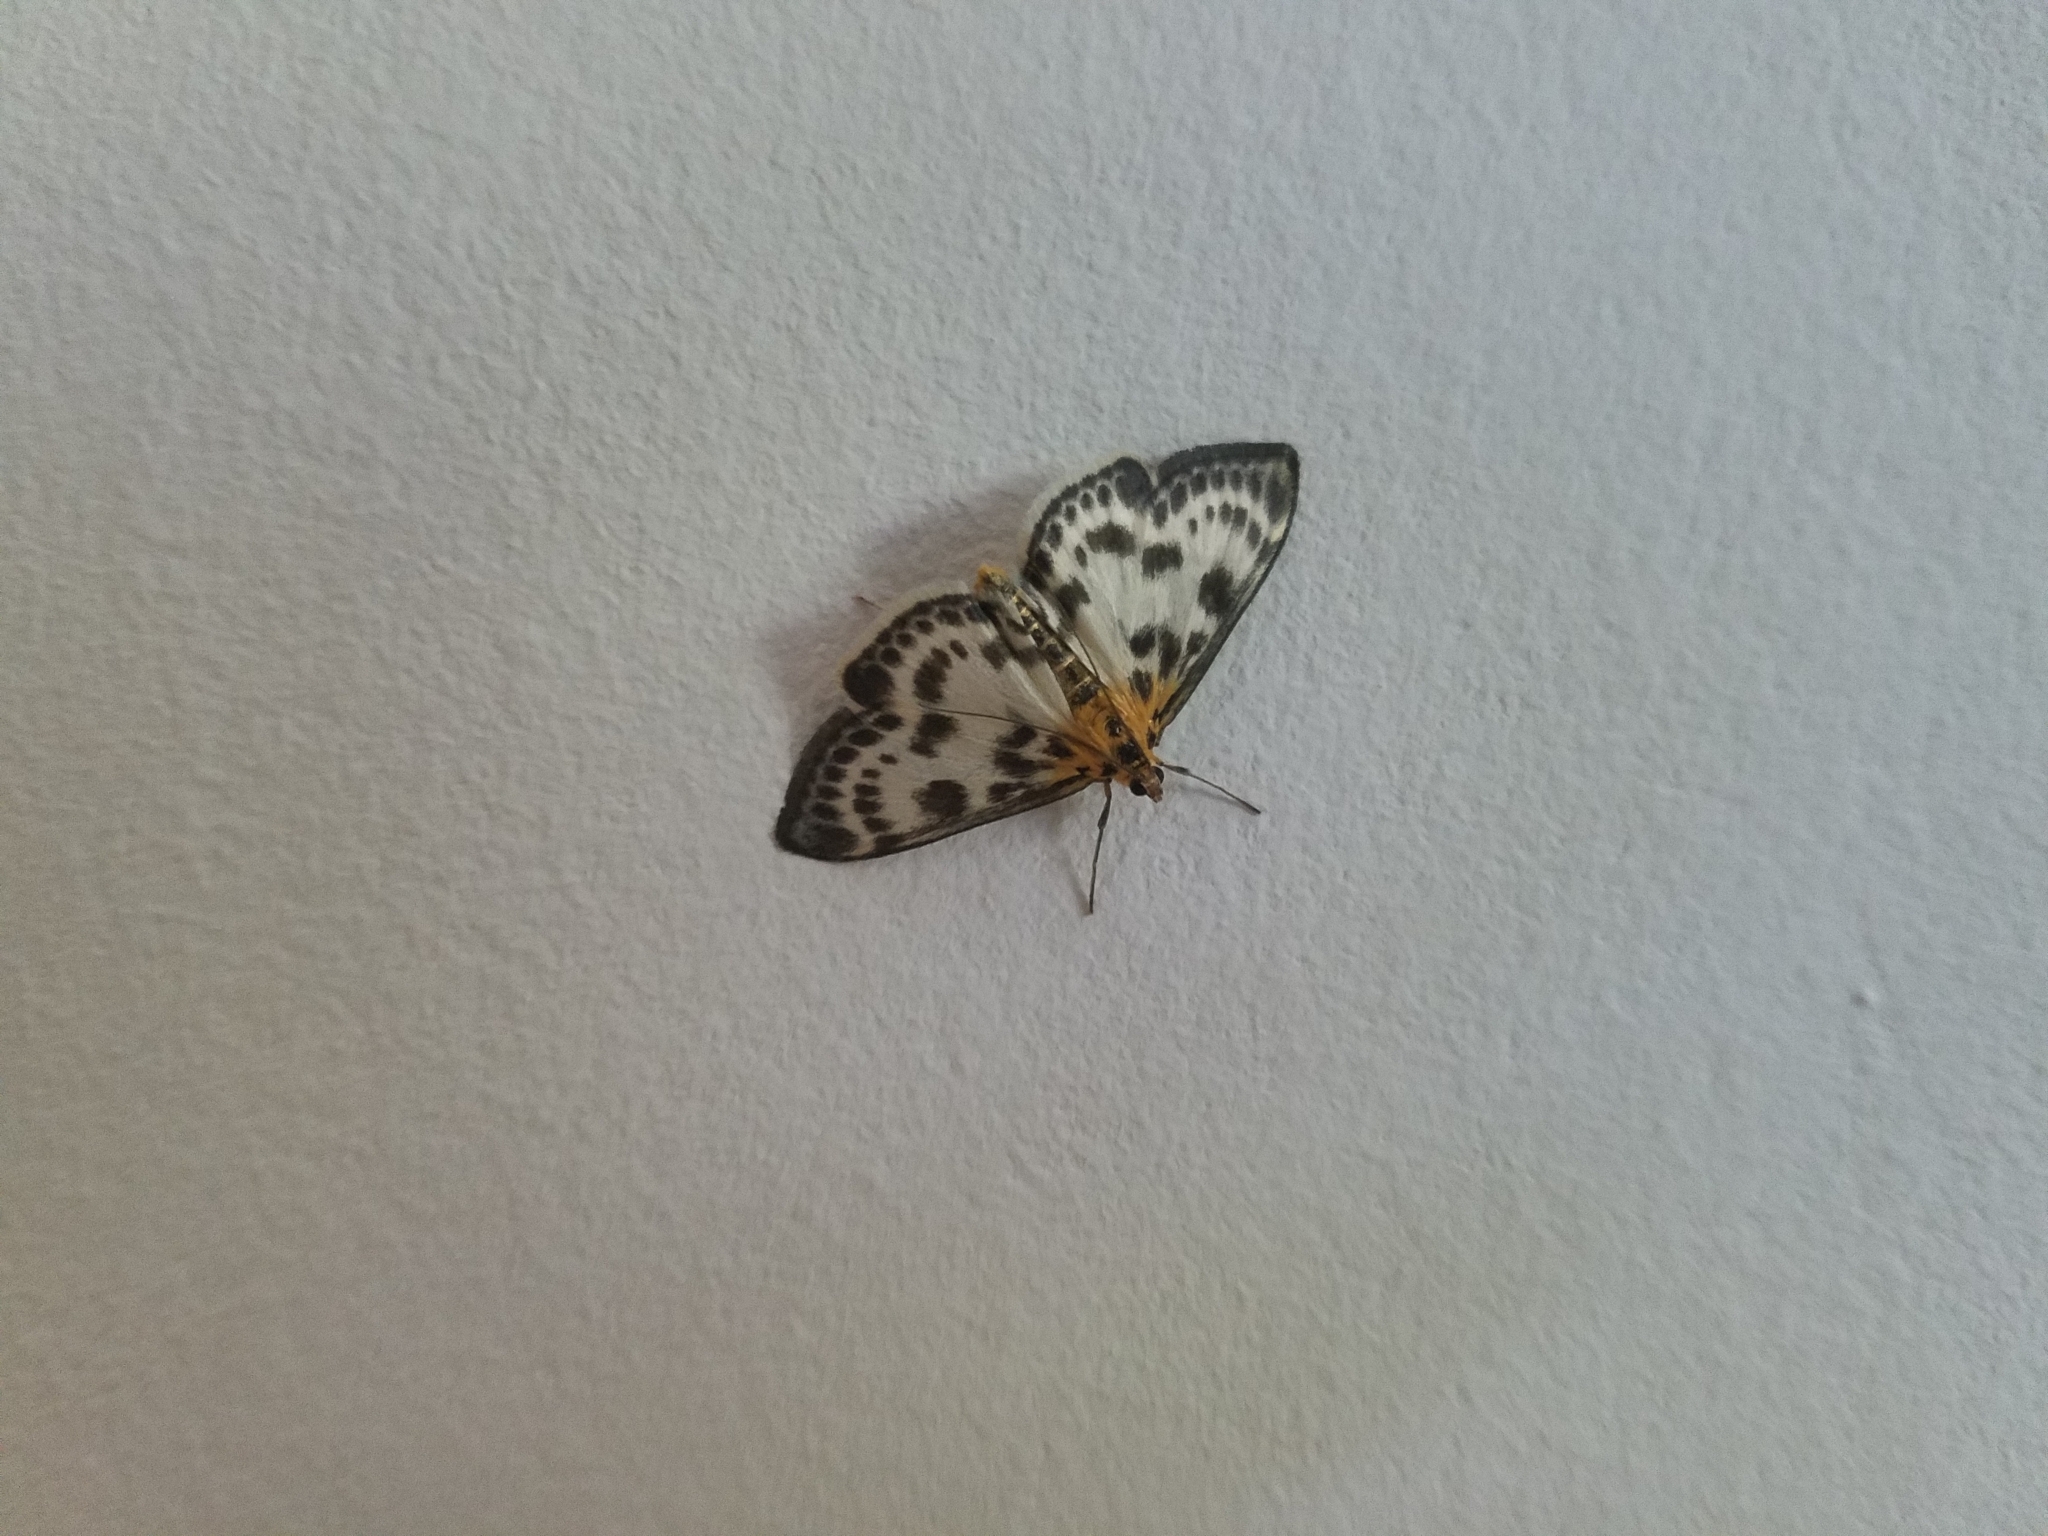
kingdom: Animalia
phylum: Arthropoda
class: Insecta
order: Lepidoptera
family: Crambidae
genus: Anania
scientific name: Anania hortulata
